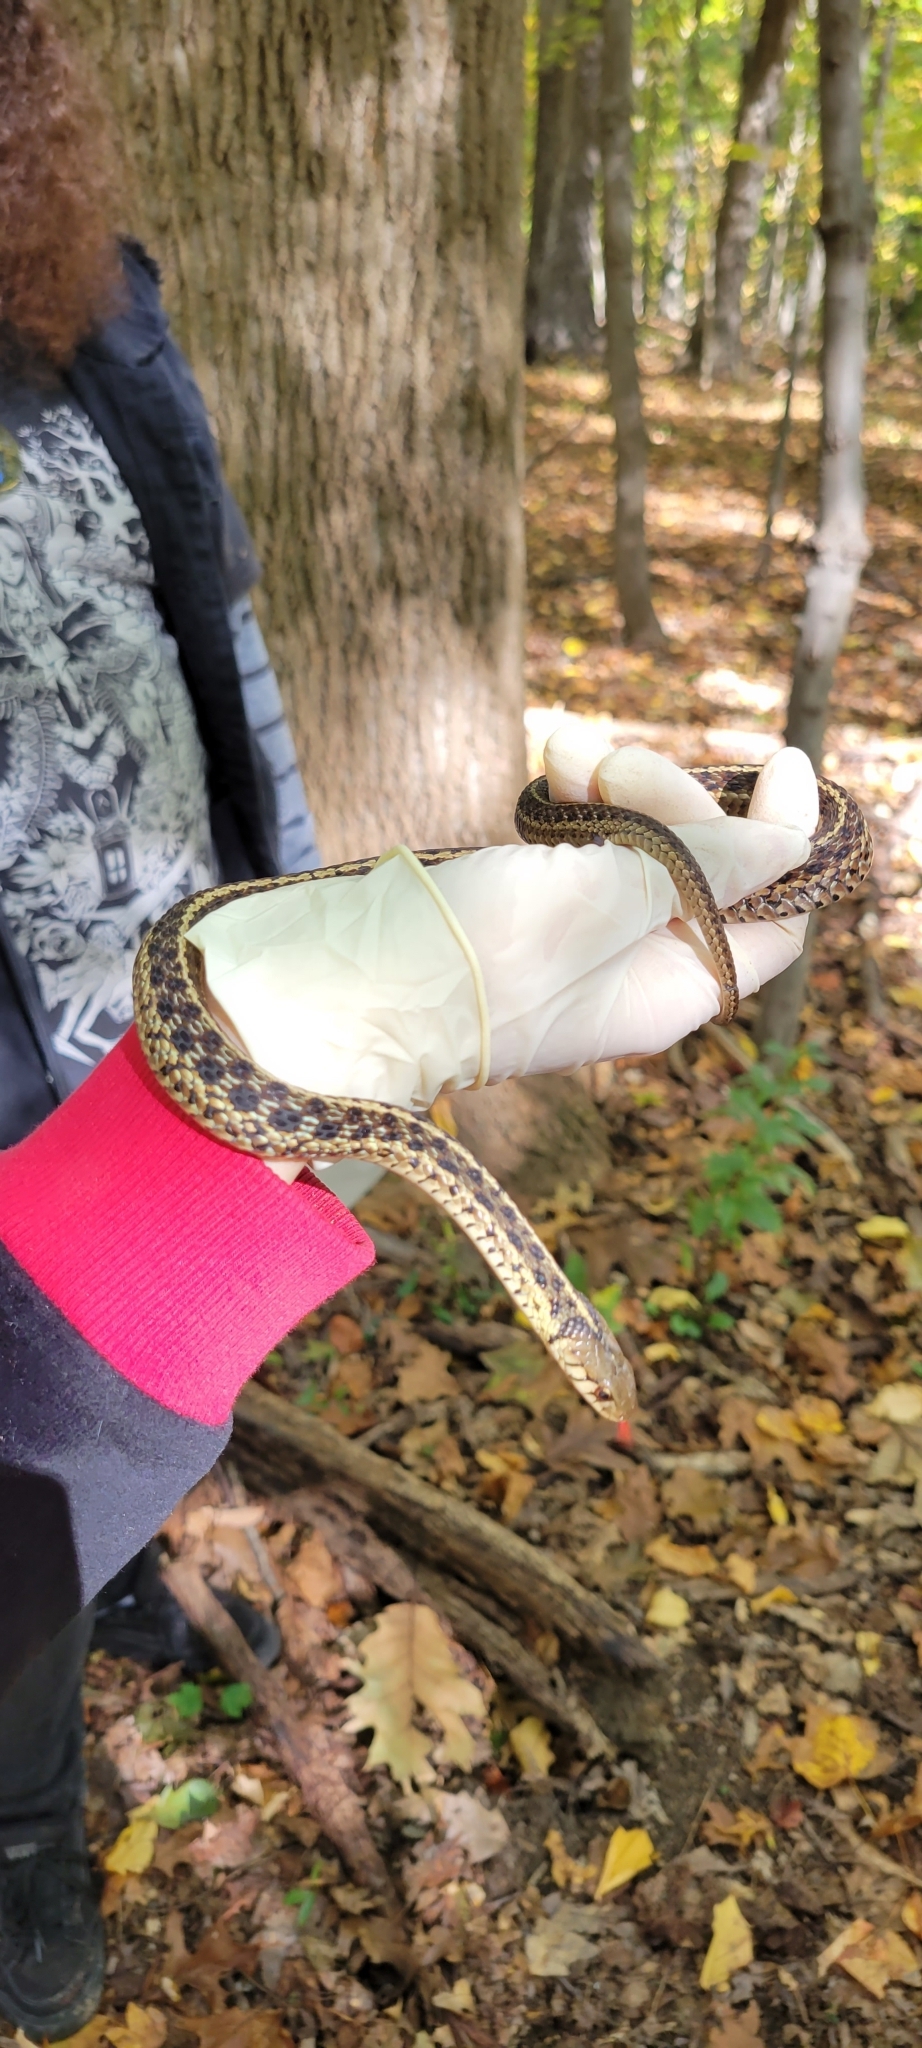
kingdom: Animalia
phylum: Chordata
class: Squamata
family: Colubridae
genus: Thamnophis
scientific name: Thamnophis sirtalis
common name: Common garter snake
